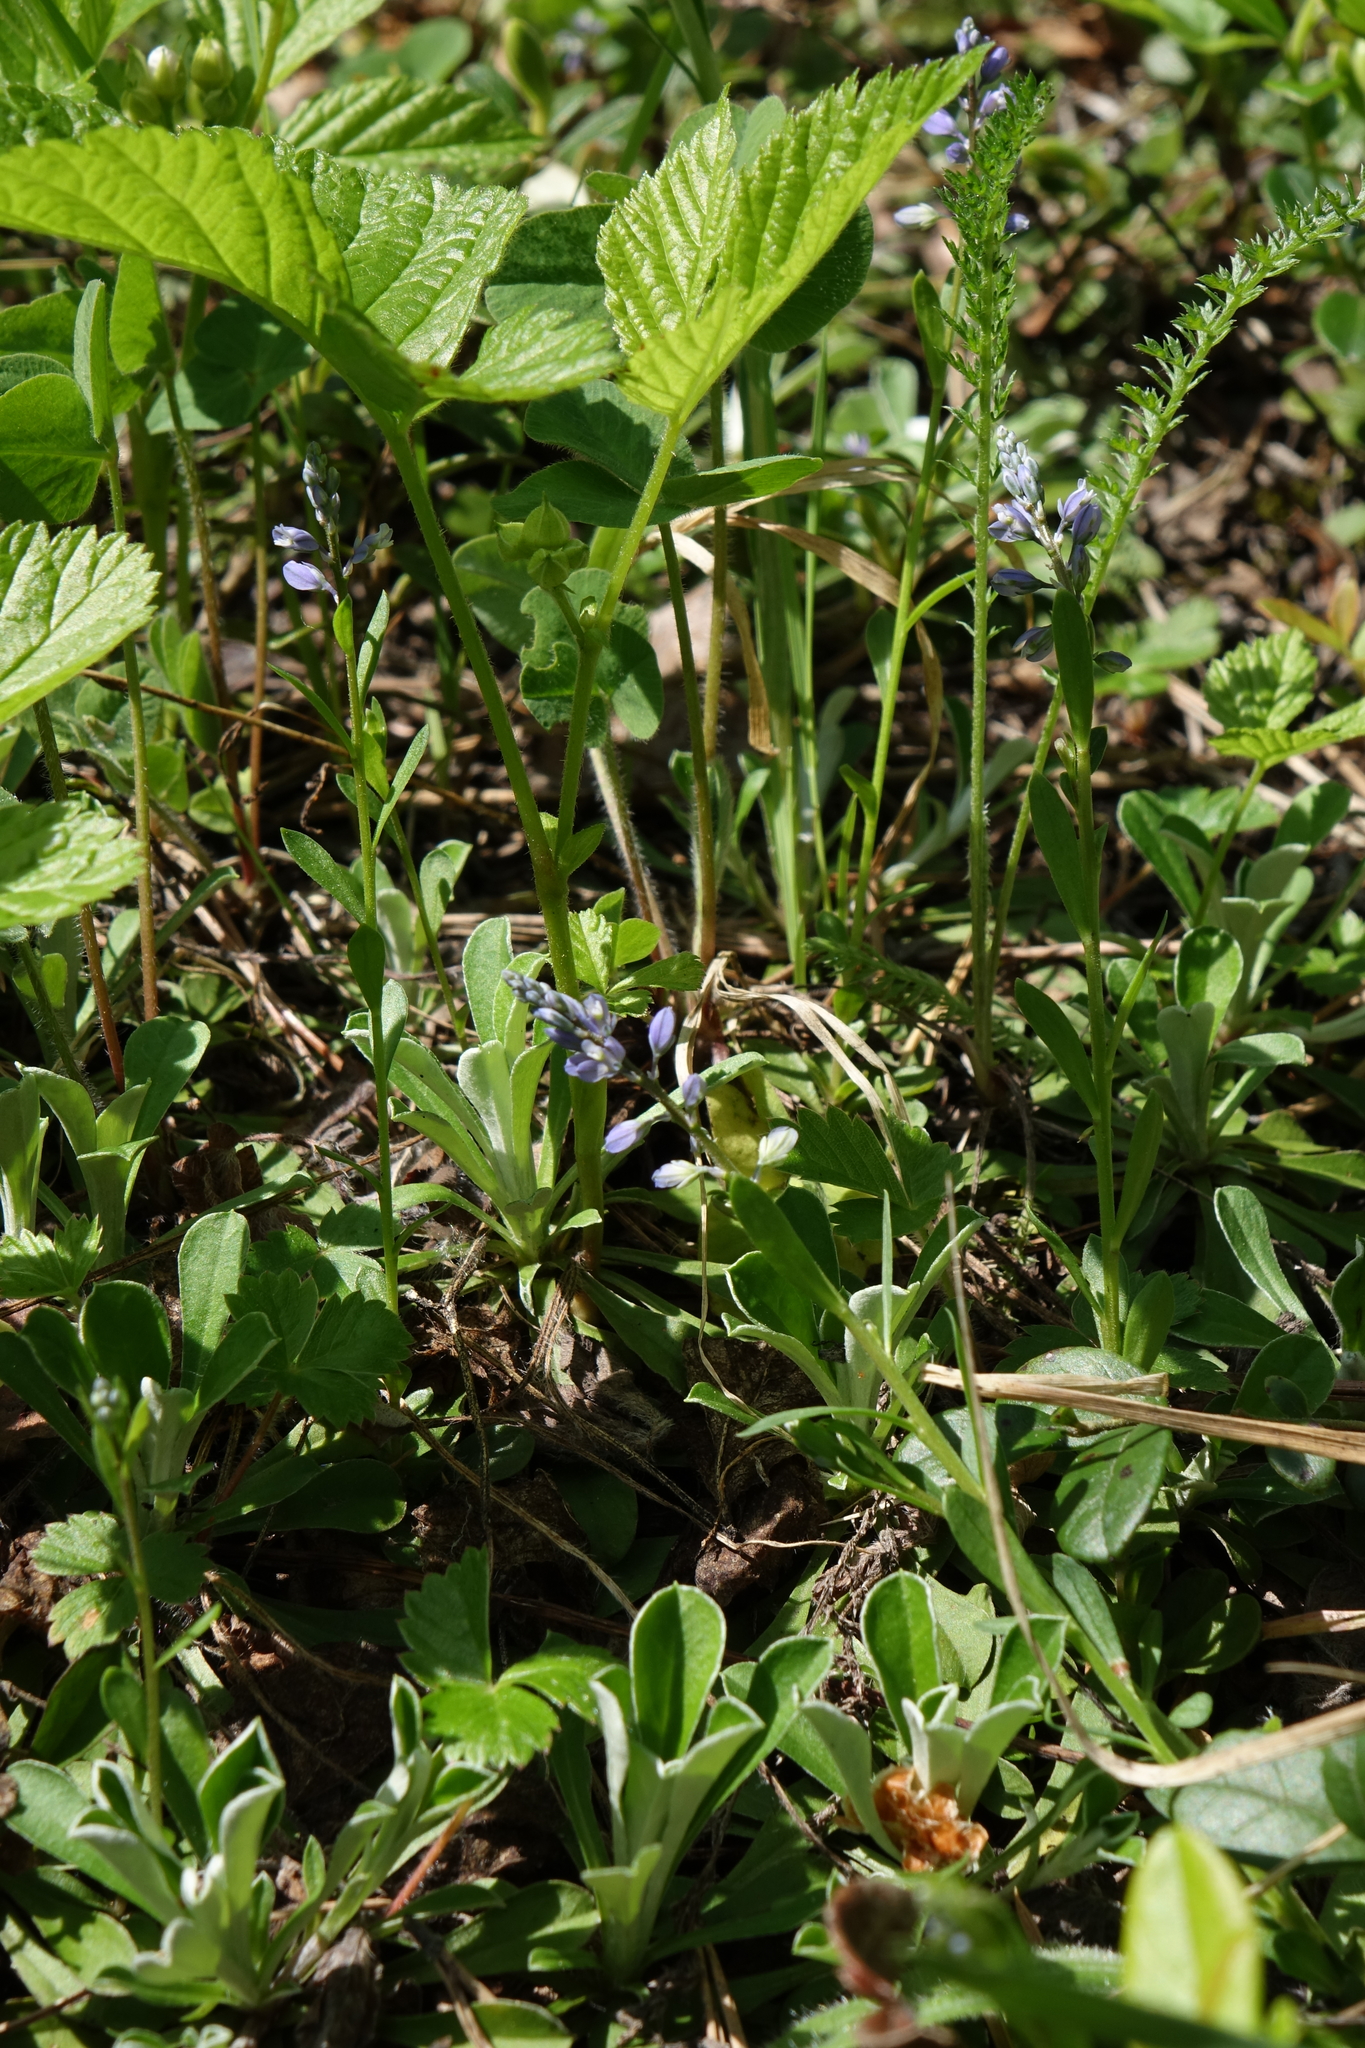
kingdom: Plantae
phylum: Tracheophyta
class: Magnoliopsida
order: Fabales
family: Polygalaceae
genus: Polygala
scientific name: Polygala amarella
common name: Dwarf milkwort
